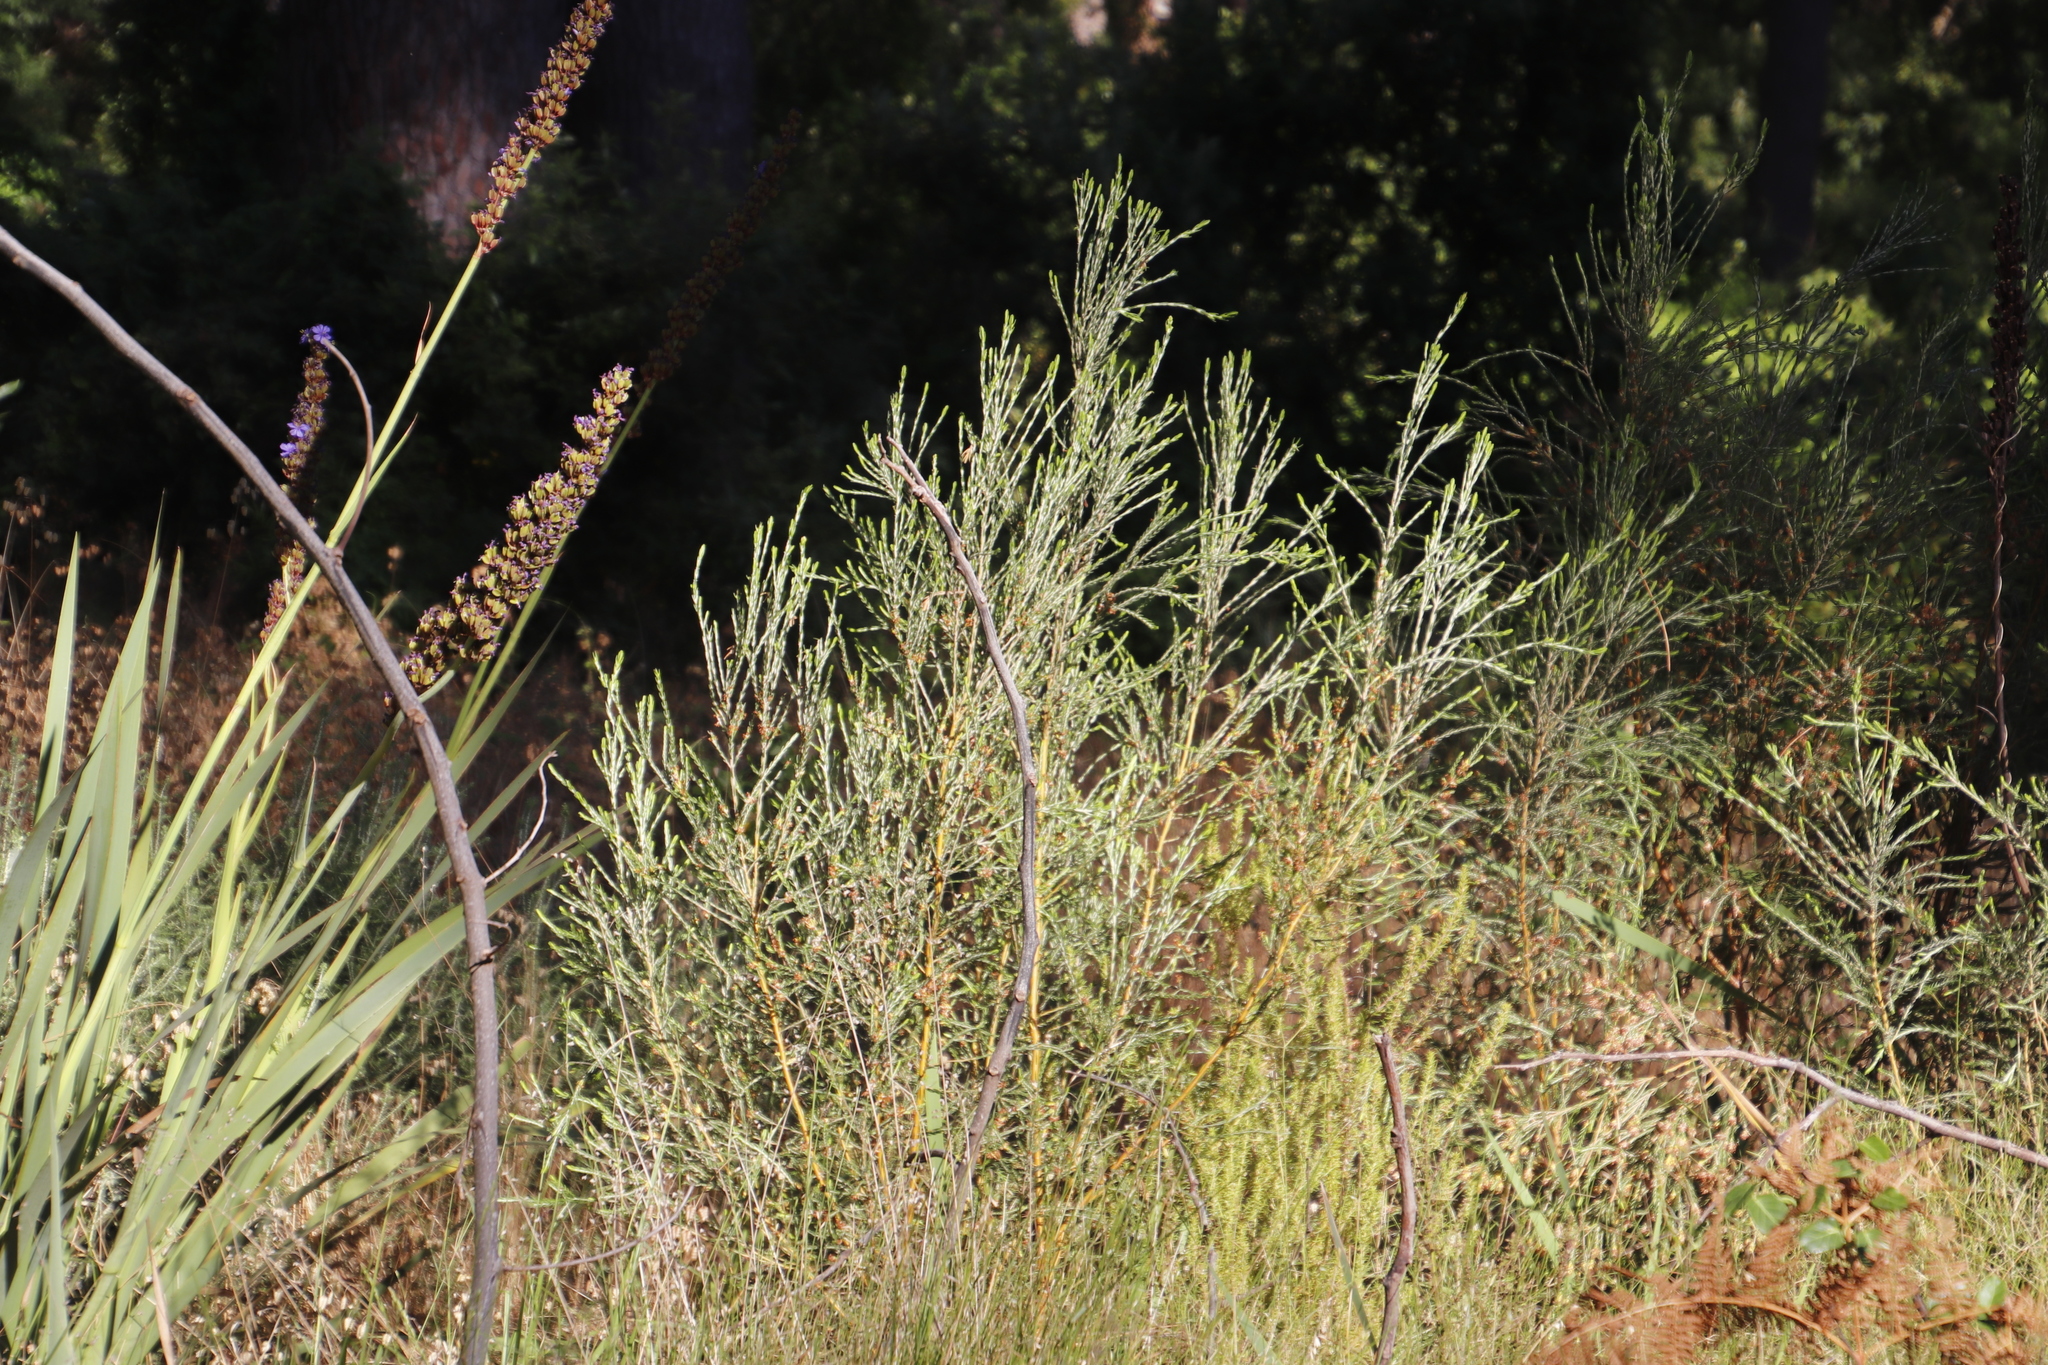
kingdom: Plantae
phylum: Tracheophyta
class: Magnoliopsida
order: Malvales
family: Thymelaeaceae
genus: Passerina
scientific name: Passerina corymbosa
